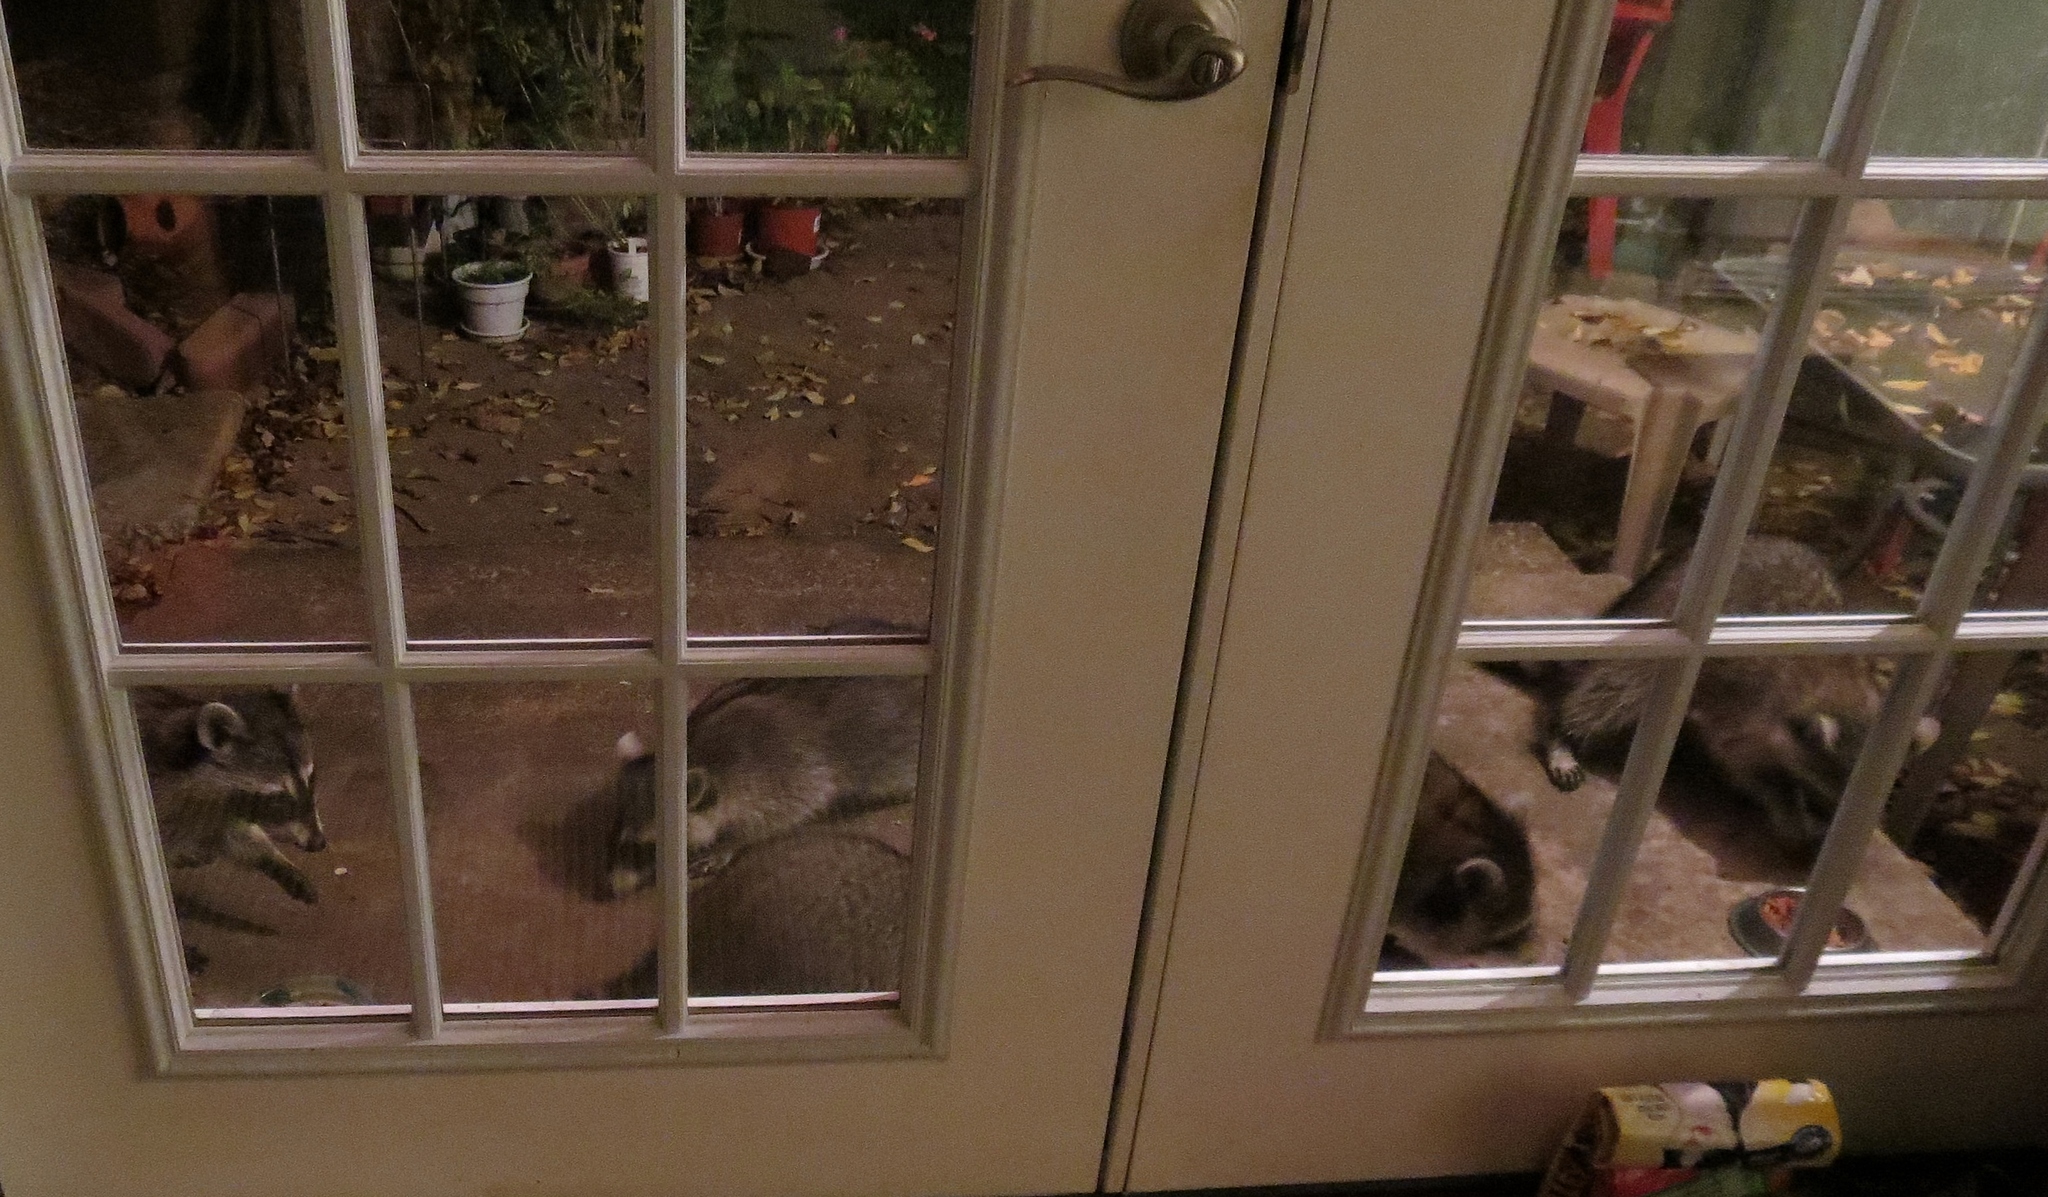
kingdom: Animalia
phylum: Chordata
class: Mammalia
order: Carnivora
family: Procyonidae
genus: Procyon
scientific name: Procyon lotor
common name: Raccoon
